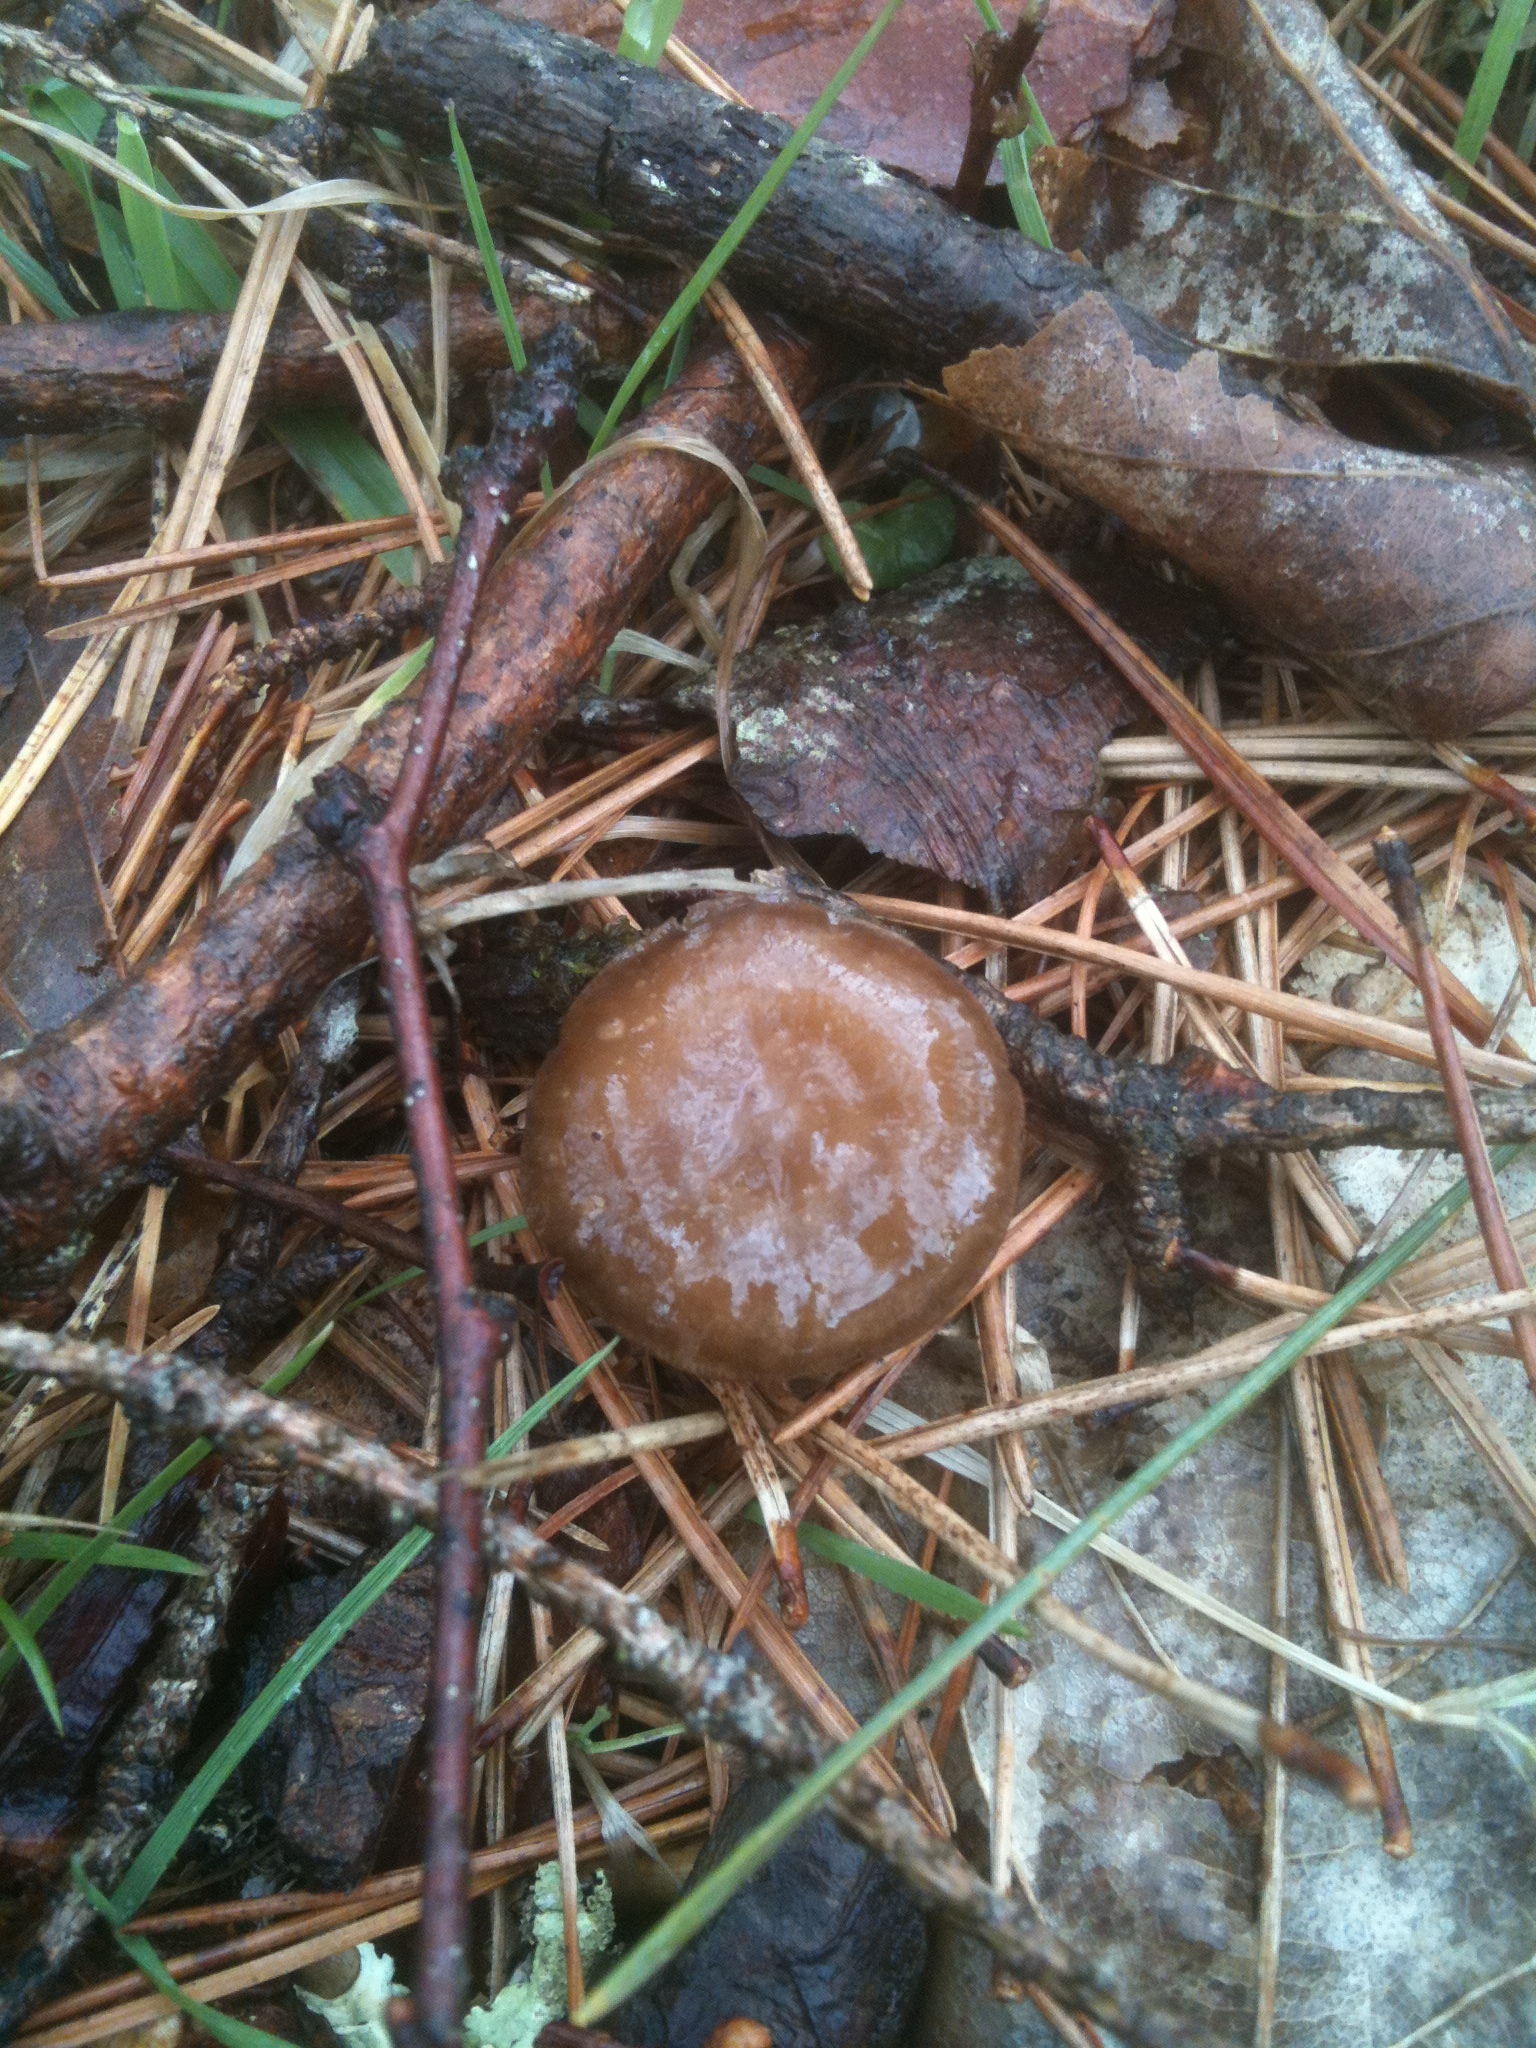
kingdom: Fungi
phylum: Basidiomycota
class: Agaricomycetes
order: Agaricales
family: Physalacriaceae
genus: Strobilurus
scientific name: Strobilurus stephanocystis
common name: Russian conecap
